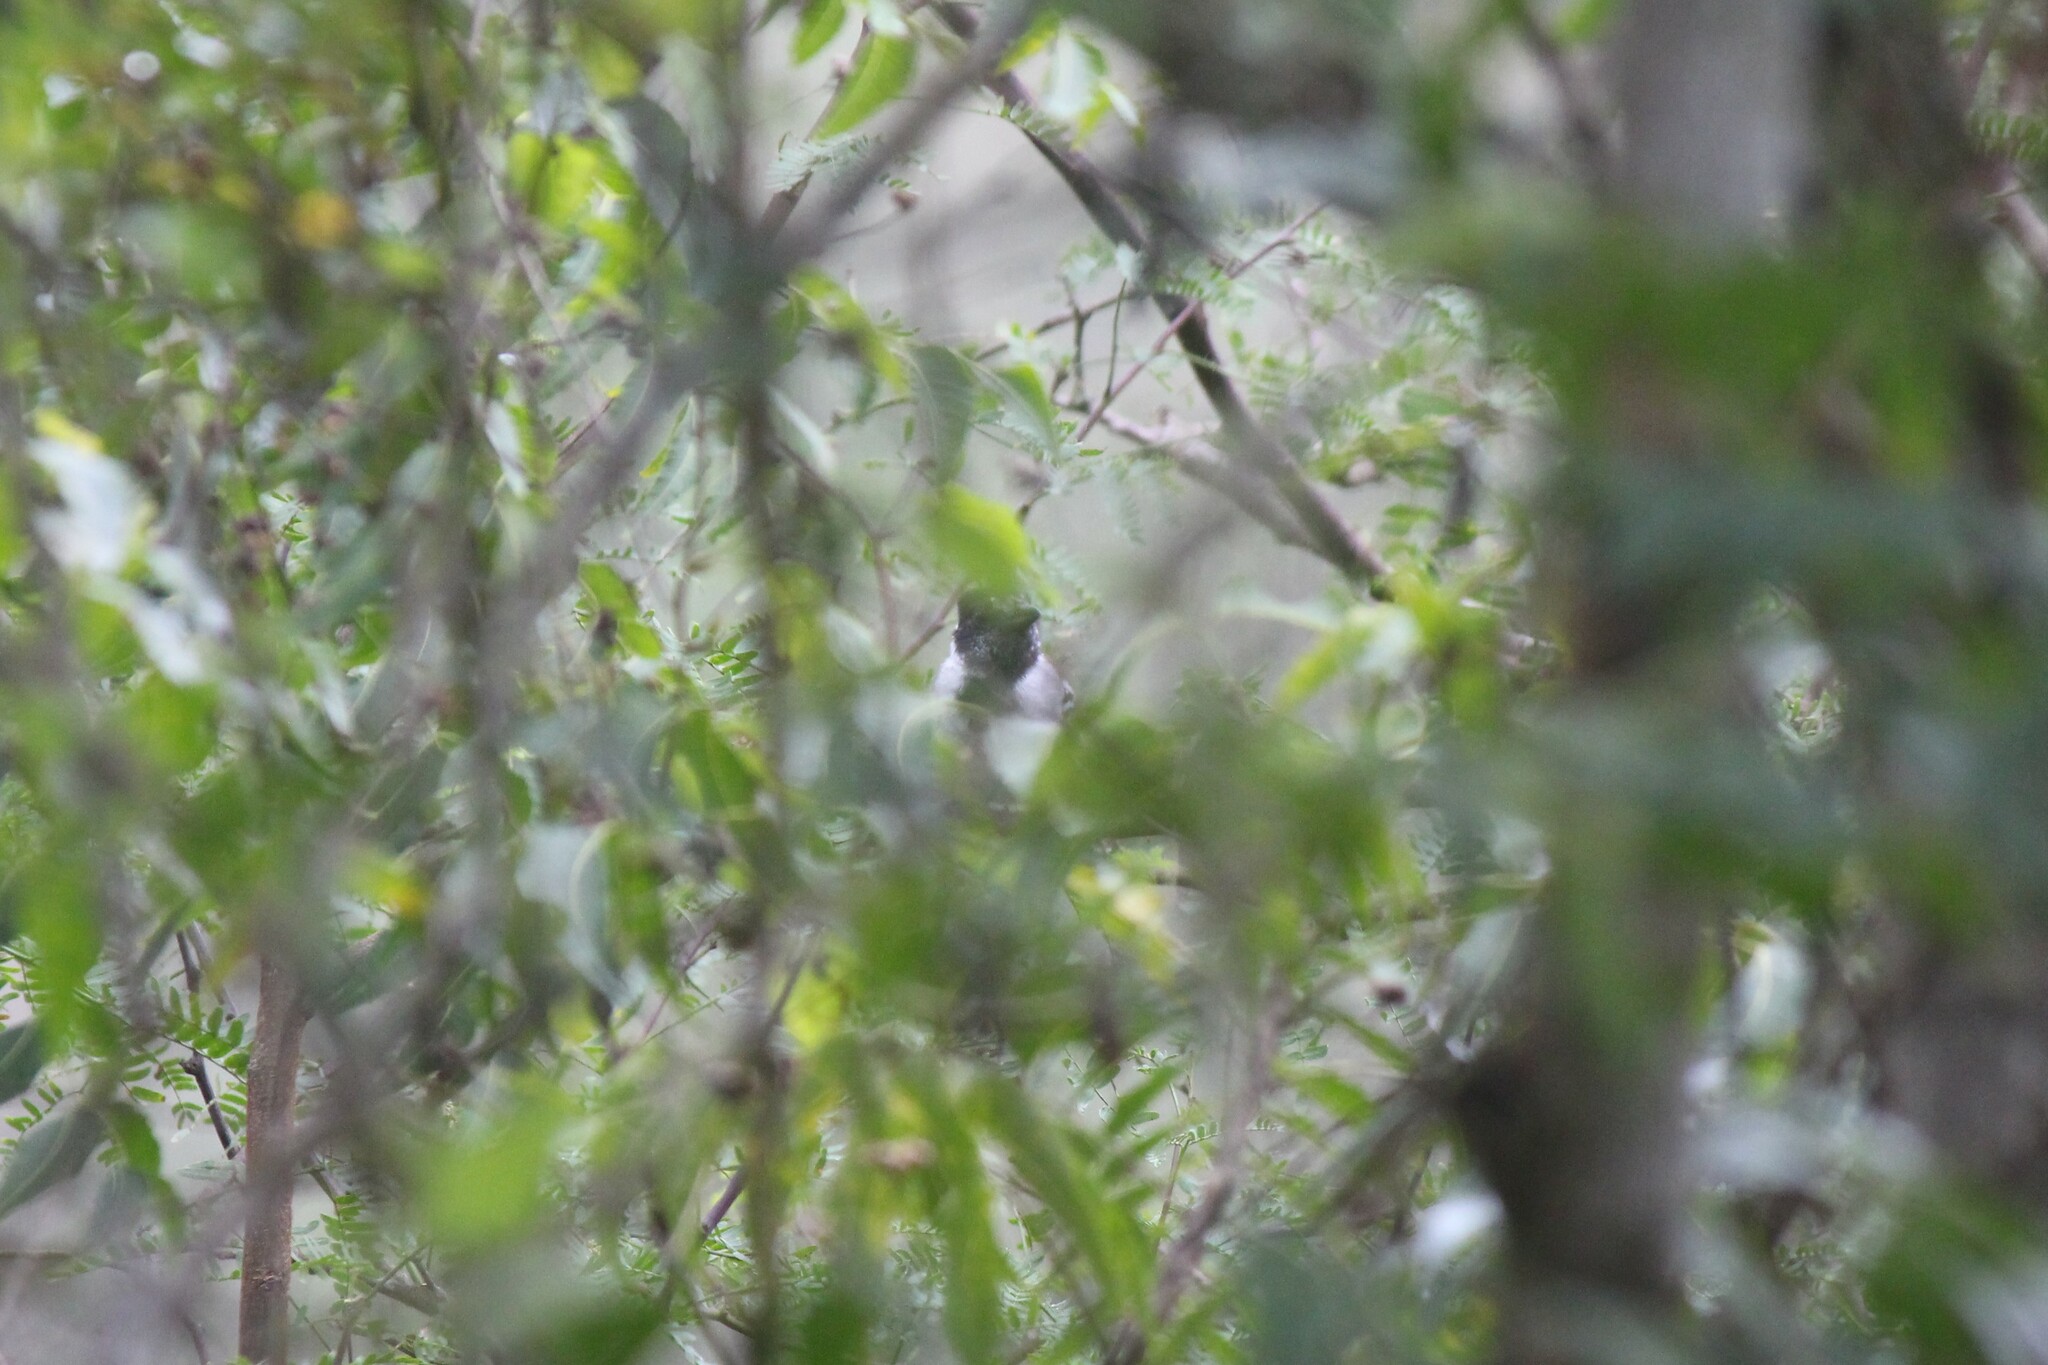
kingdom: Animalia
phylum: Chordata
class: Aves
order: Passeriformes
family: Thamnophilidae
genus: Thamnophilus
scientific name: Thamnophilus bernardi
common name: Collared antshrike
